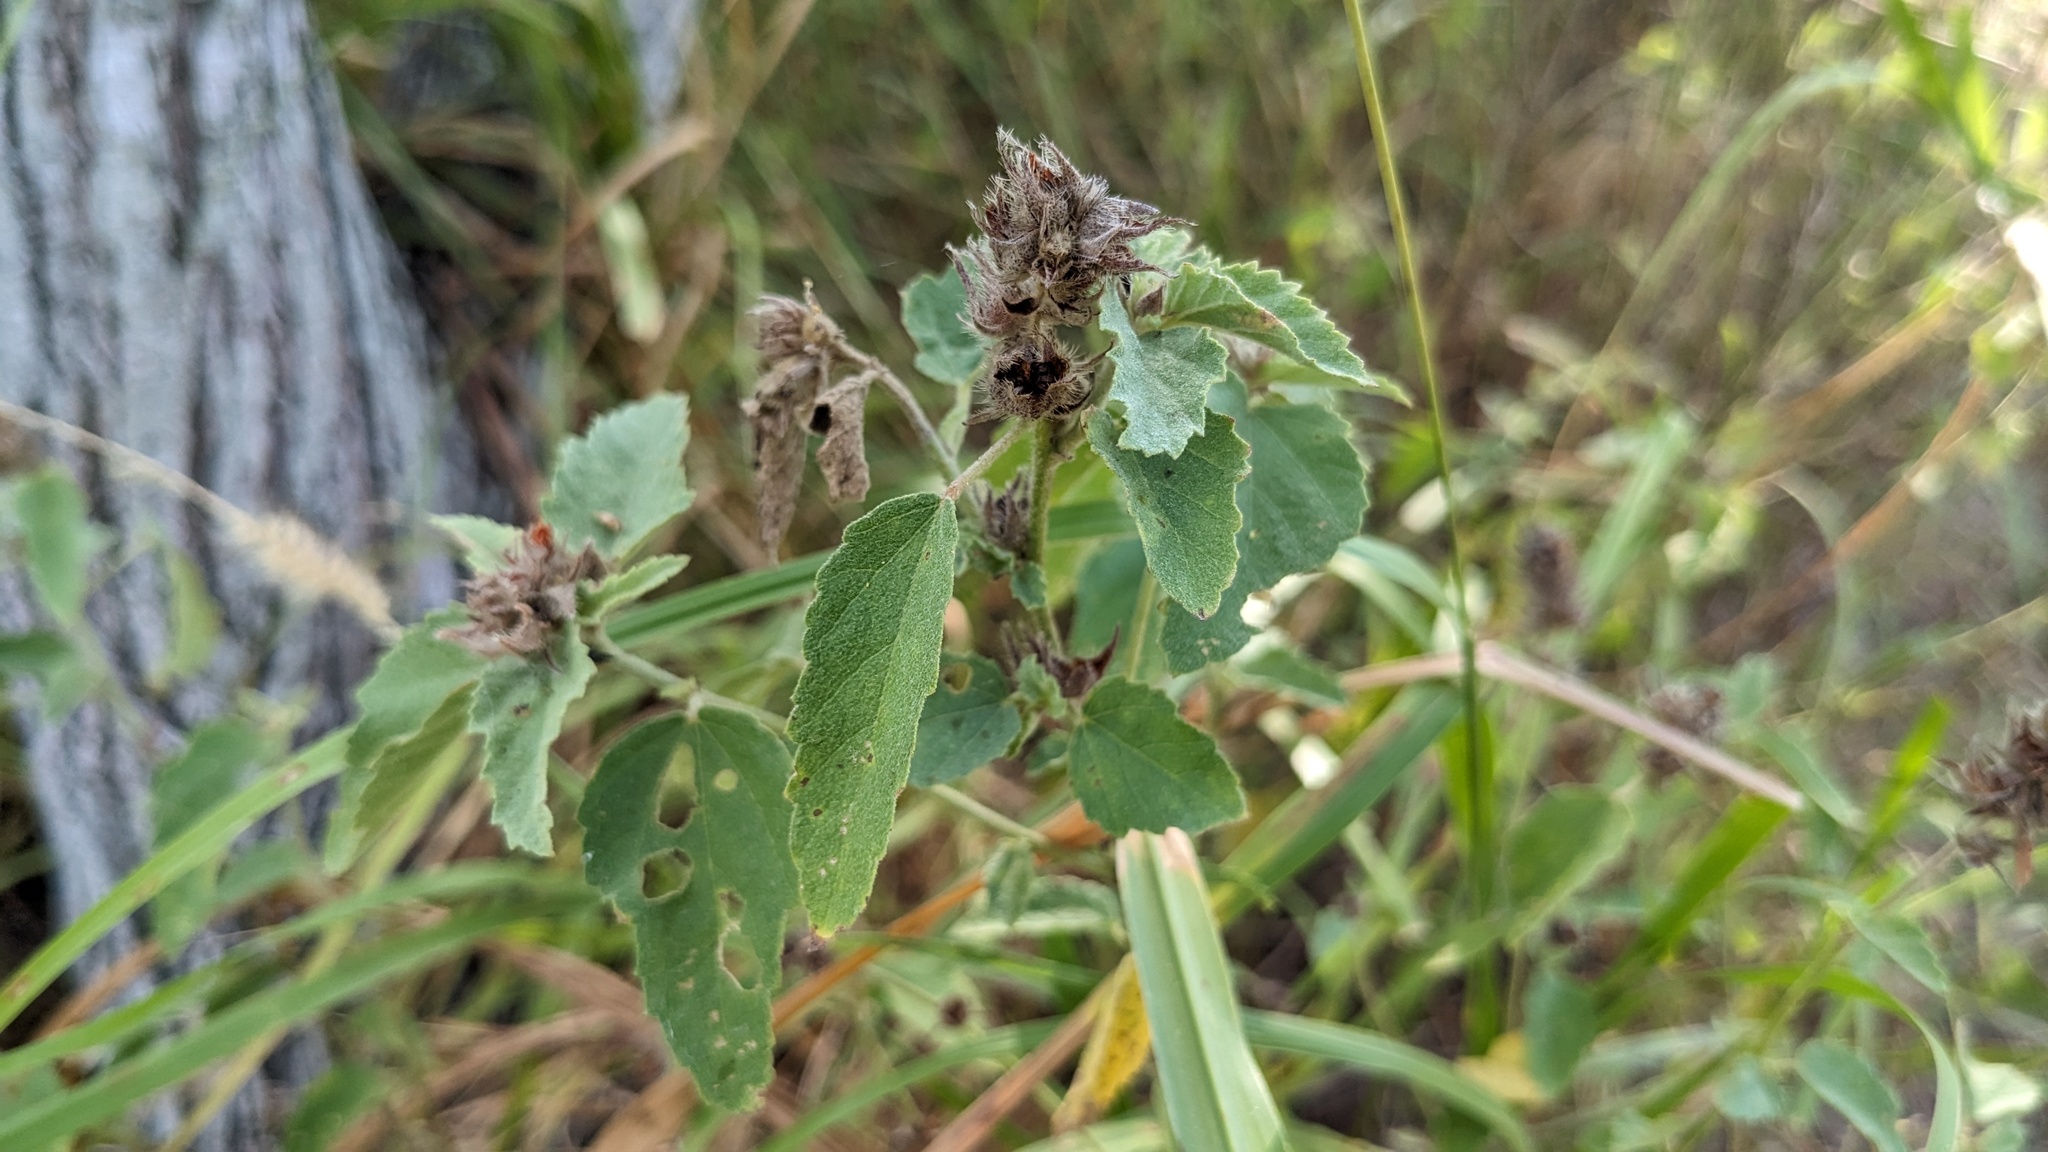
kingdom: Plantae
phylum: Tracheophyta
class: Magnoliopsida
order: Malvales
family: Malvaceae
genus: Malvastrum
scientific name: Malvastrum americanum
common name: Spiked malvastrum
